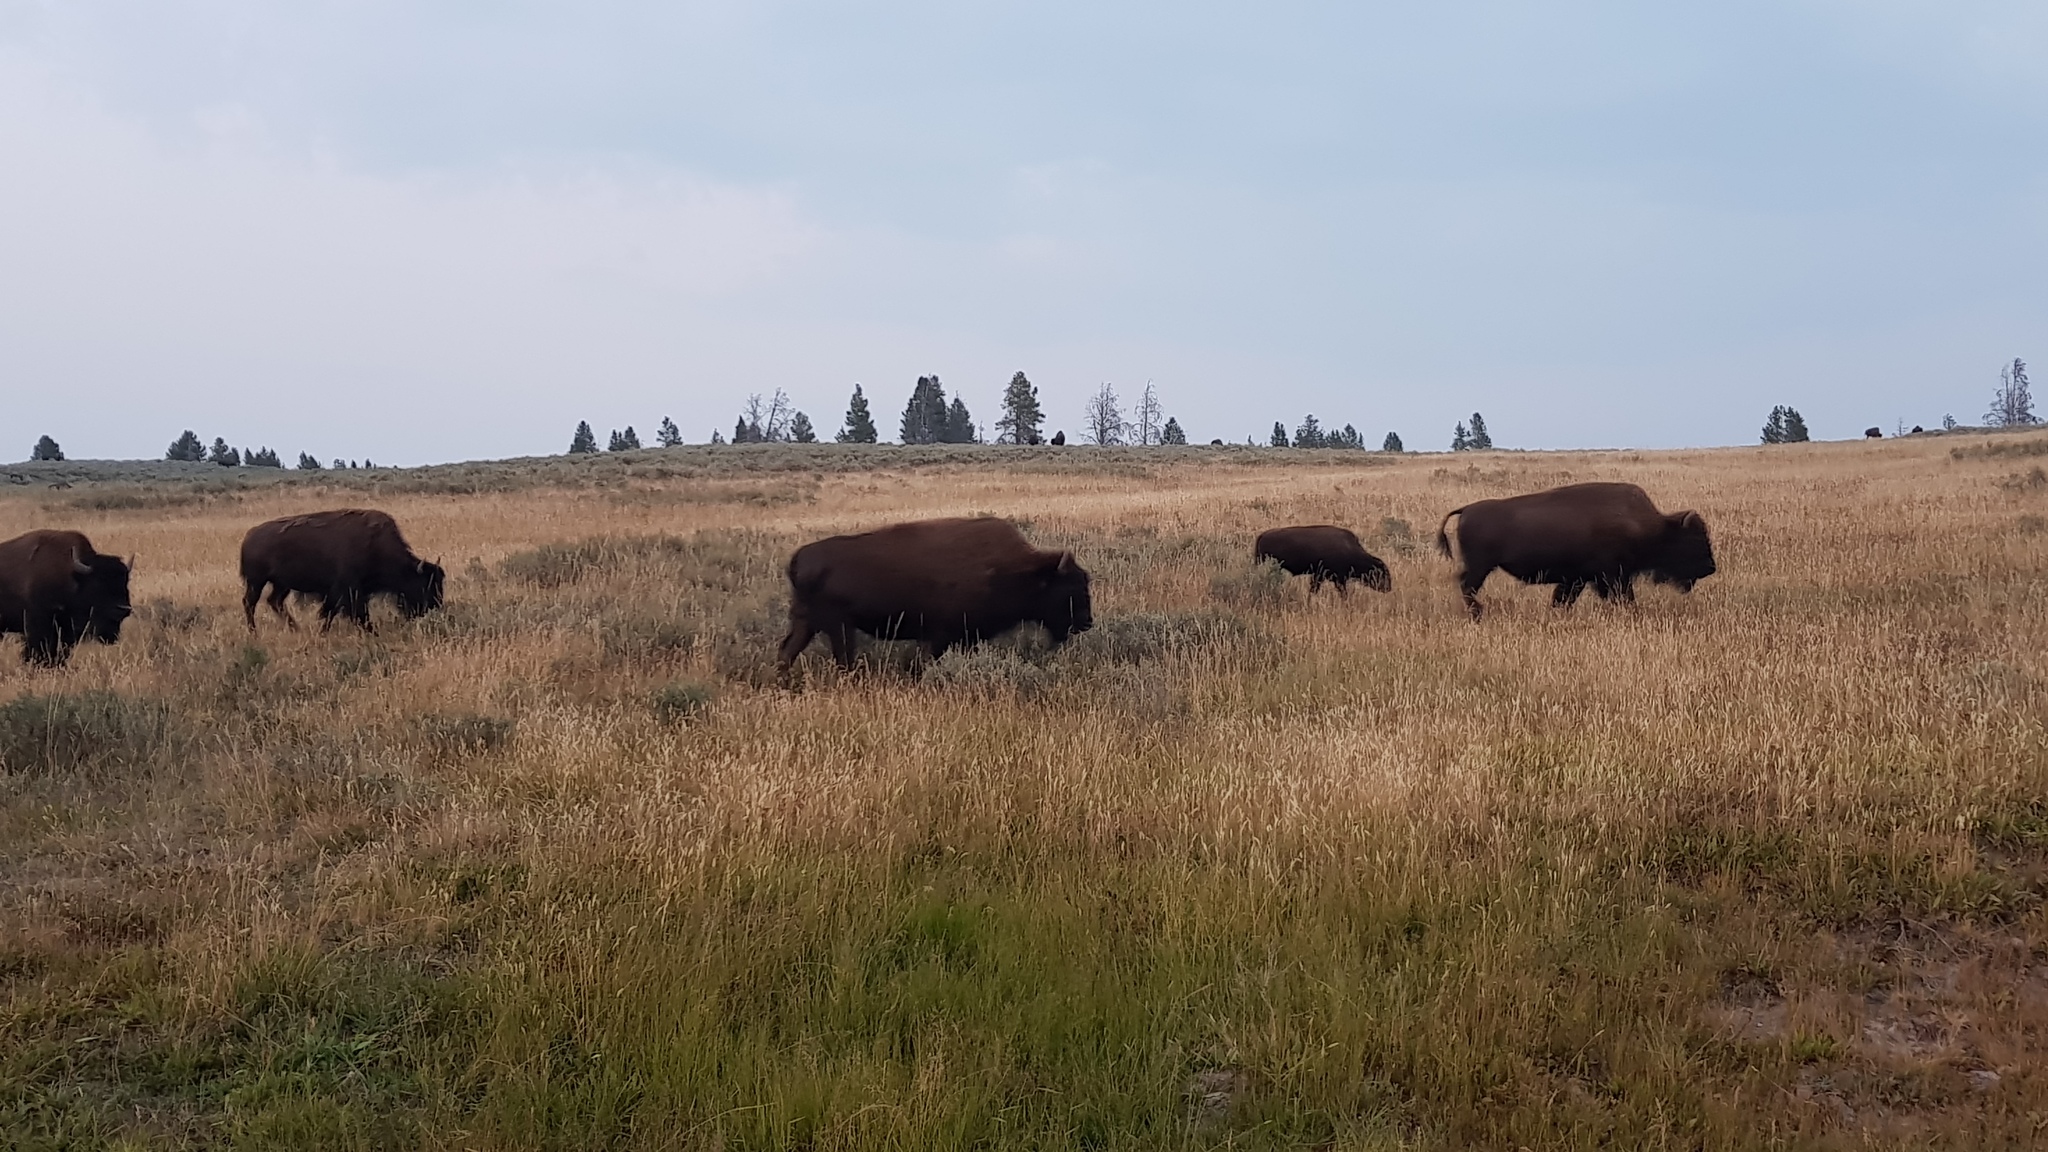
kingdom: Animalia
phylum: Chordata
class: Mammalia
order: Artiodactyla
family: Bovidae
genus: Bison
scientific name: Bison bison
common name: American bison
